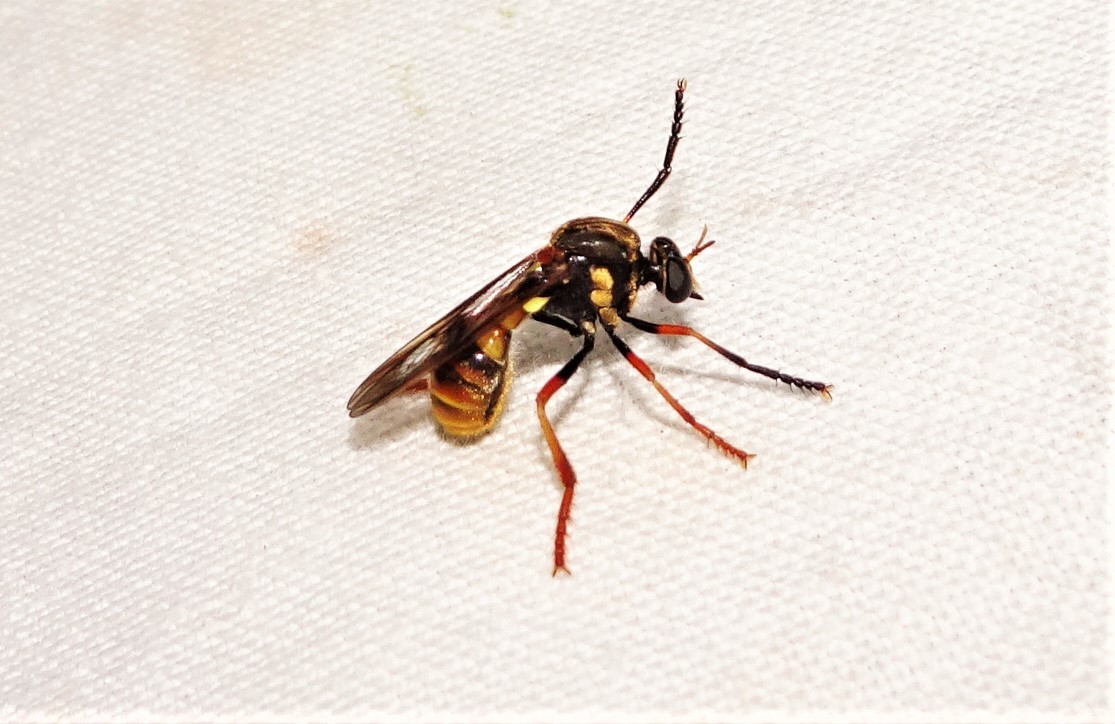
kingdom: Animalia
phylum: Arthropoda
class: Insecta
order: Diptera
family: Asilidae
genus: Brachyrhopala
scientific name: Brachyrhopala quadricincta
